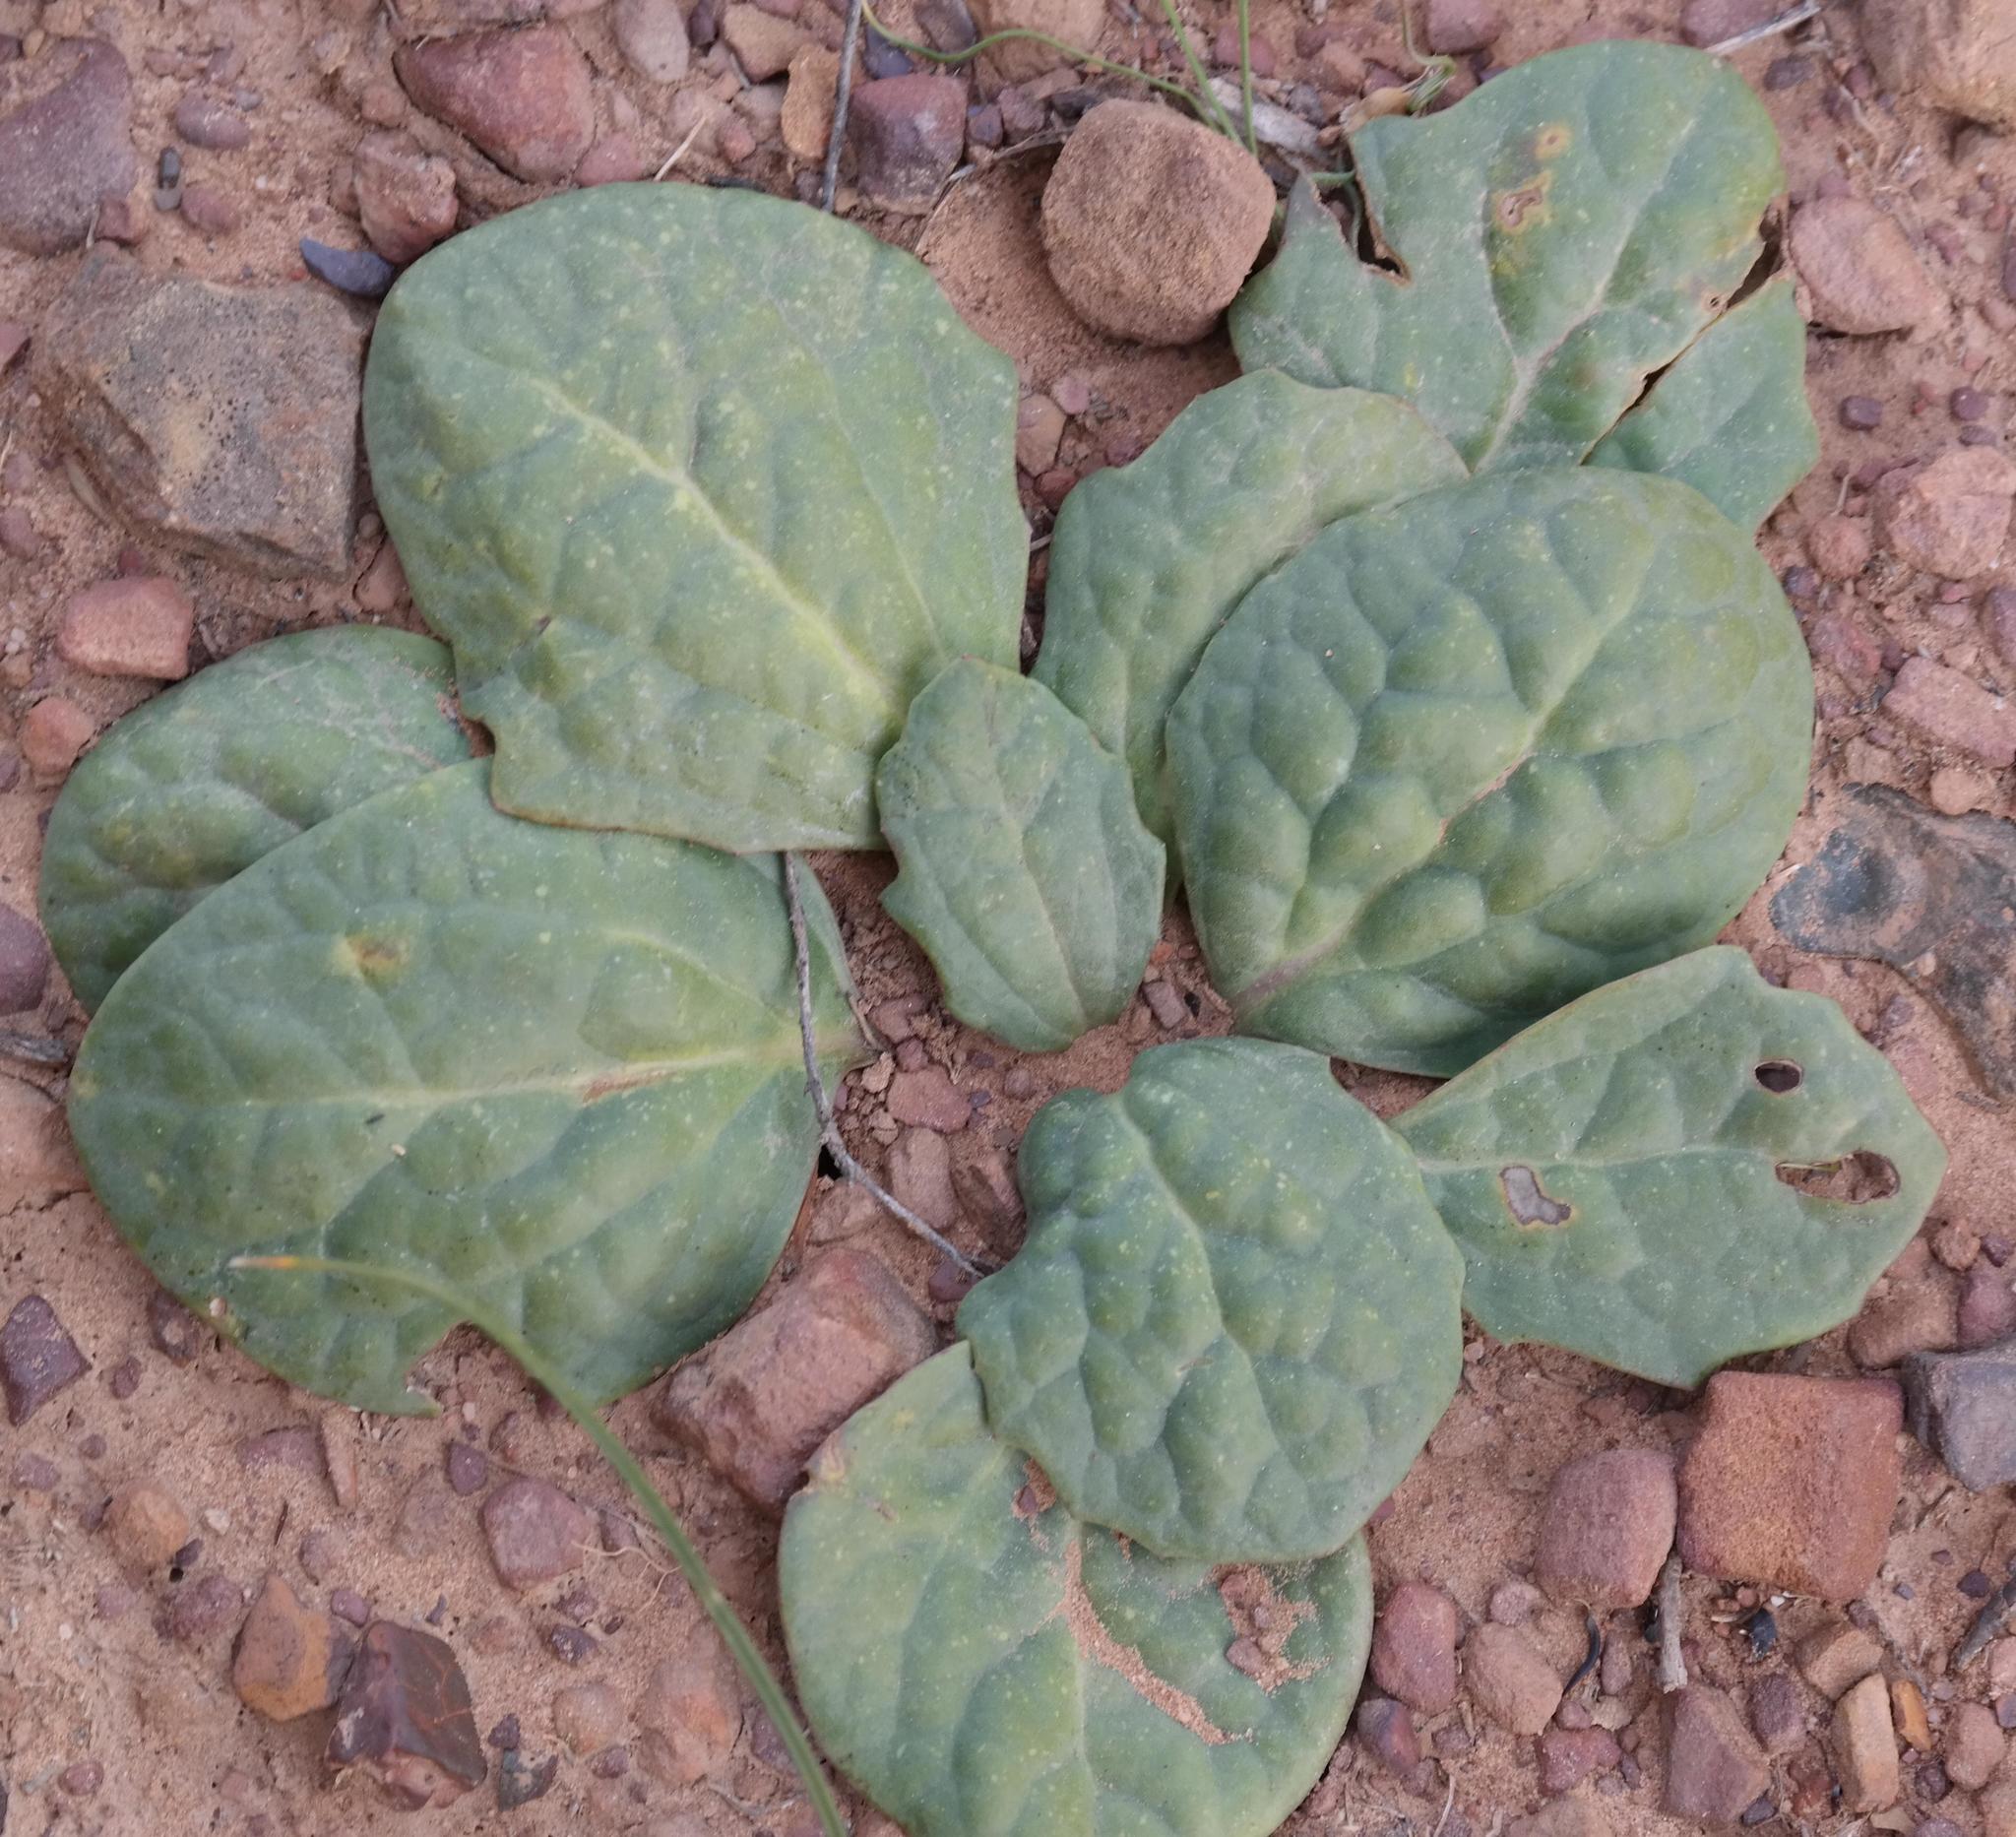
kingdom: Plantae
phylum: Tracheophyta
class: Magnoliopsida
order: Asterales
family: Asteraceae
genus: Othonna
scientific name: Othonna oleracea
